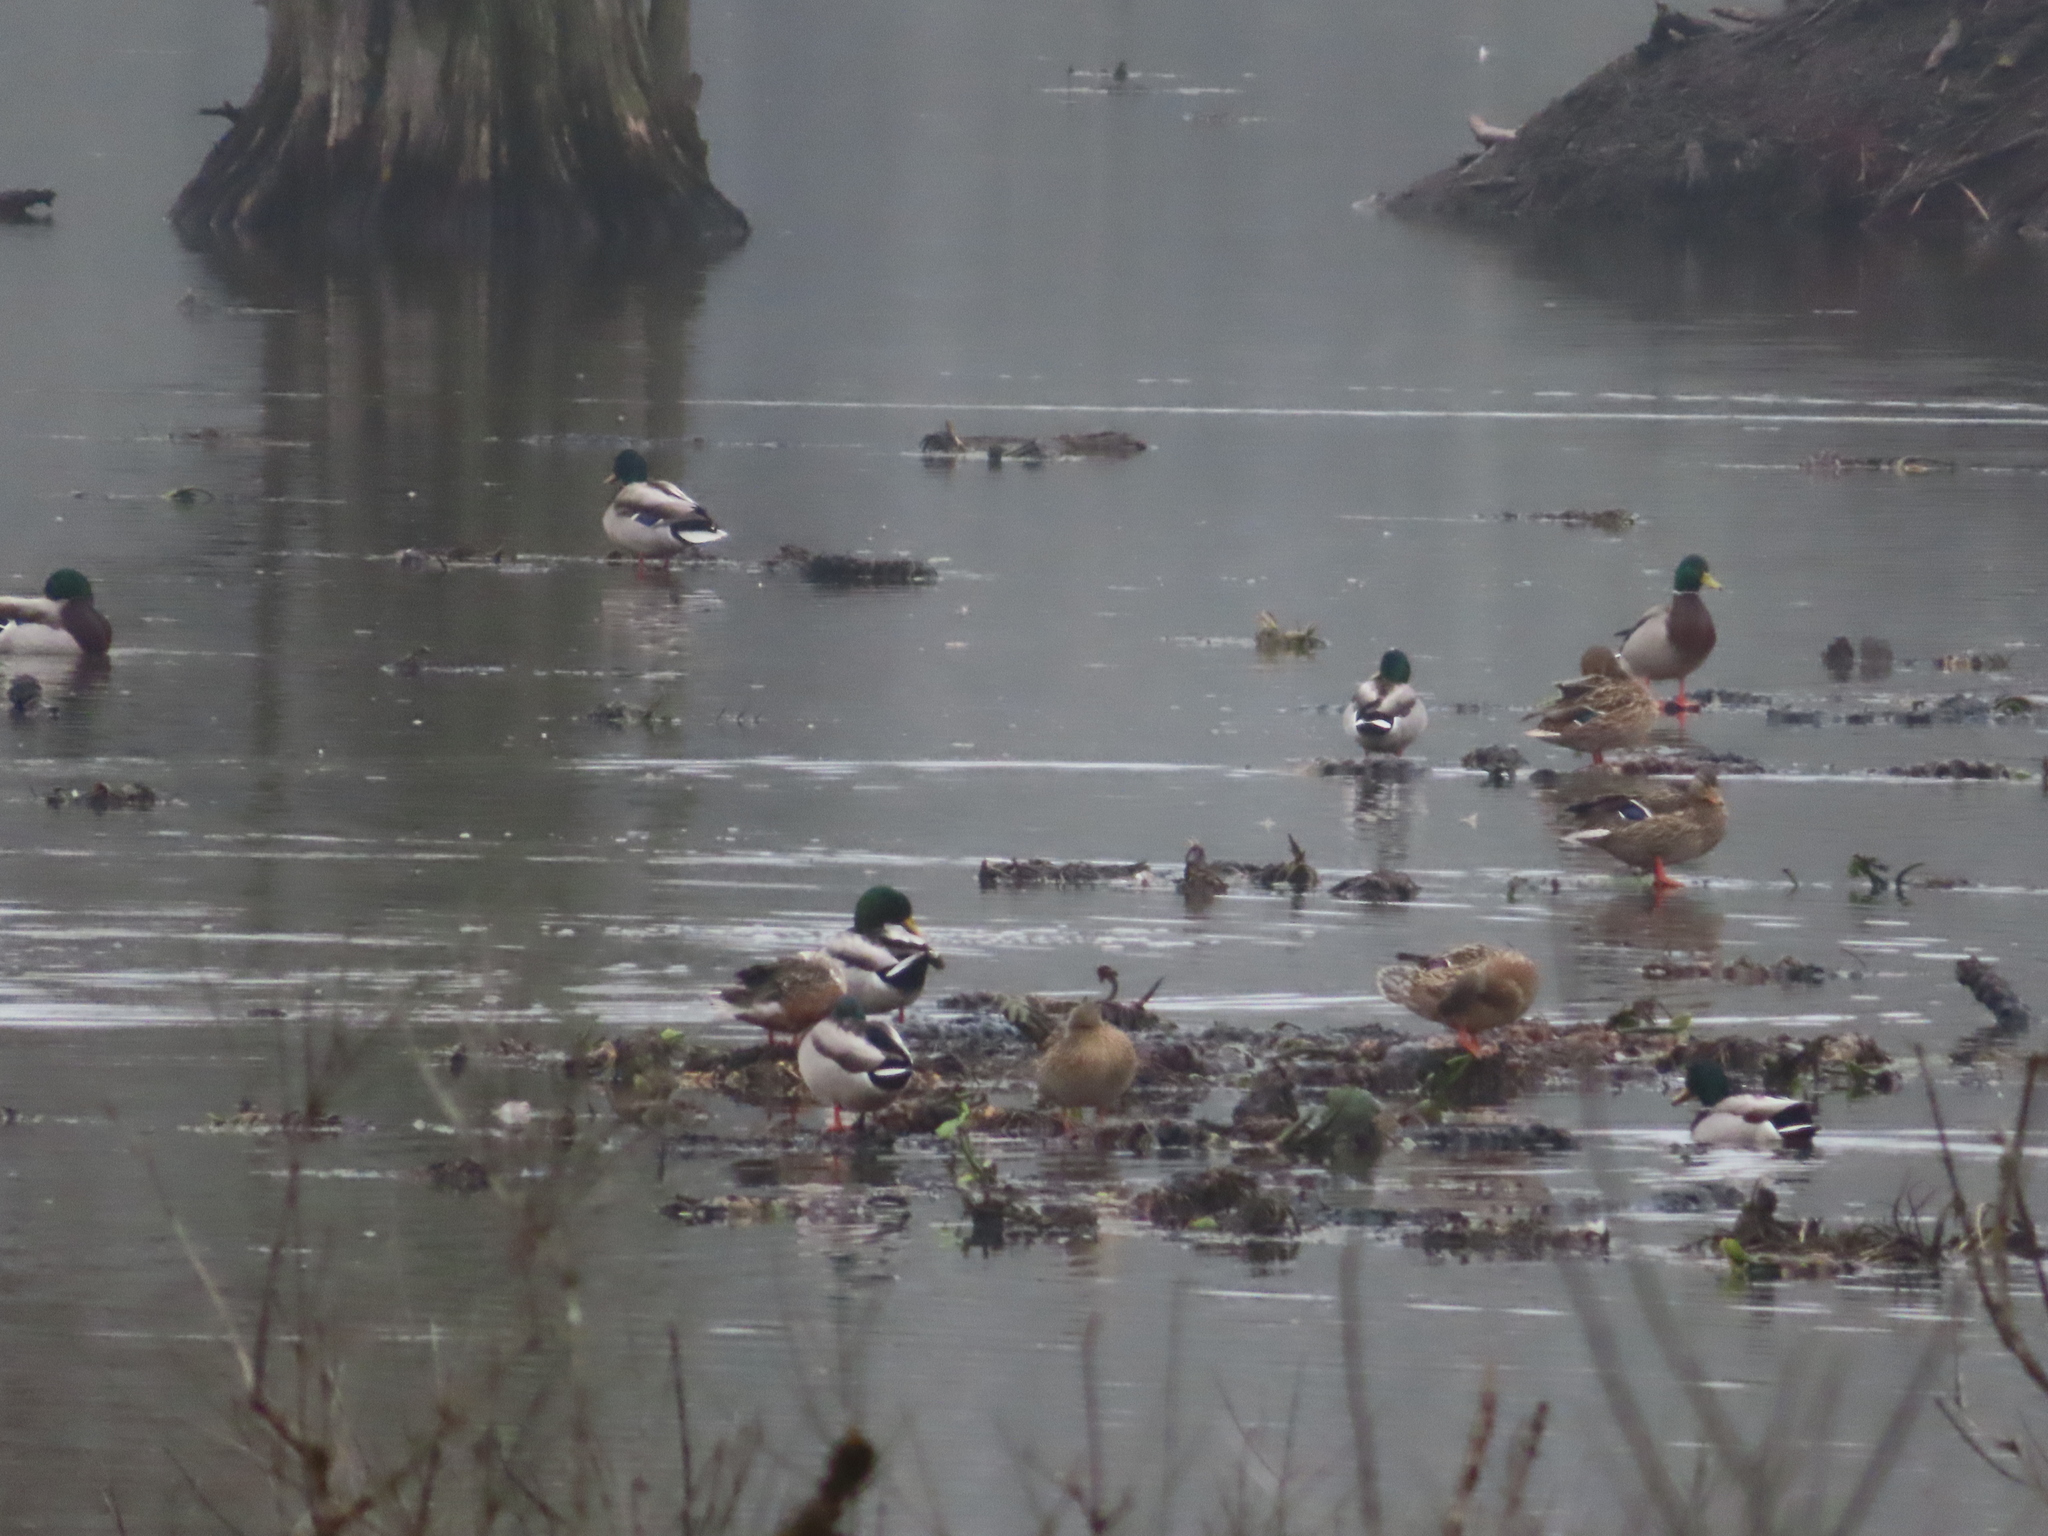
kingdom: Animalia
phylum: Chordata
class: Aves
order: Anseriformes
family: Anatidae
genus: Anas
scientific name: Anas platyrhynchos
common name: Mallard
